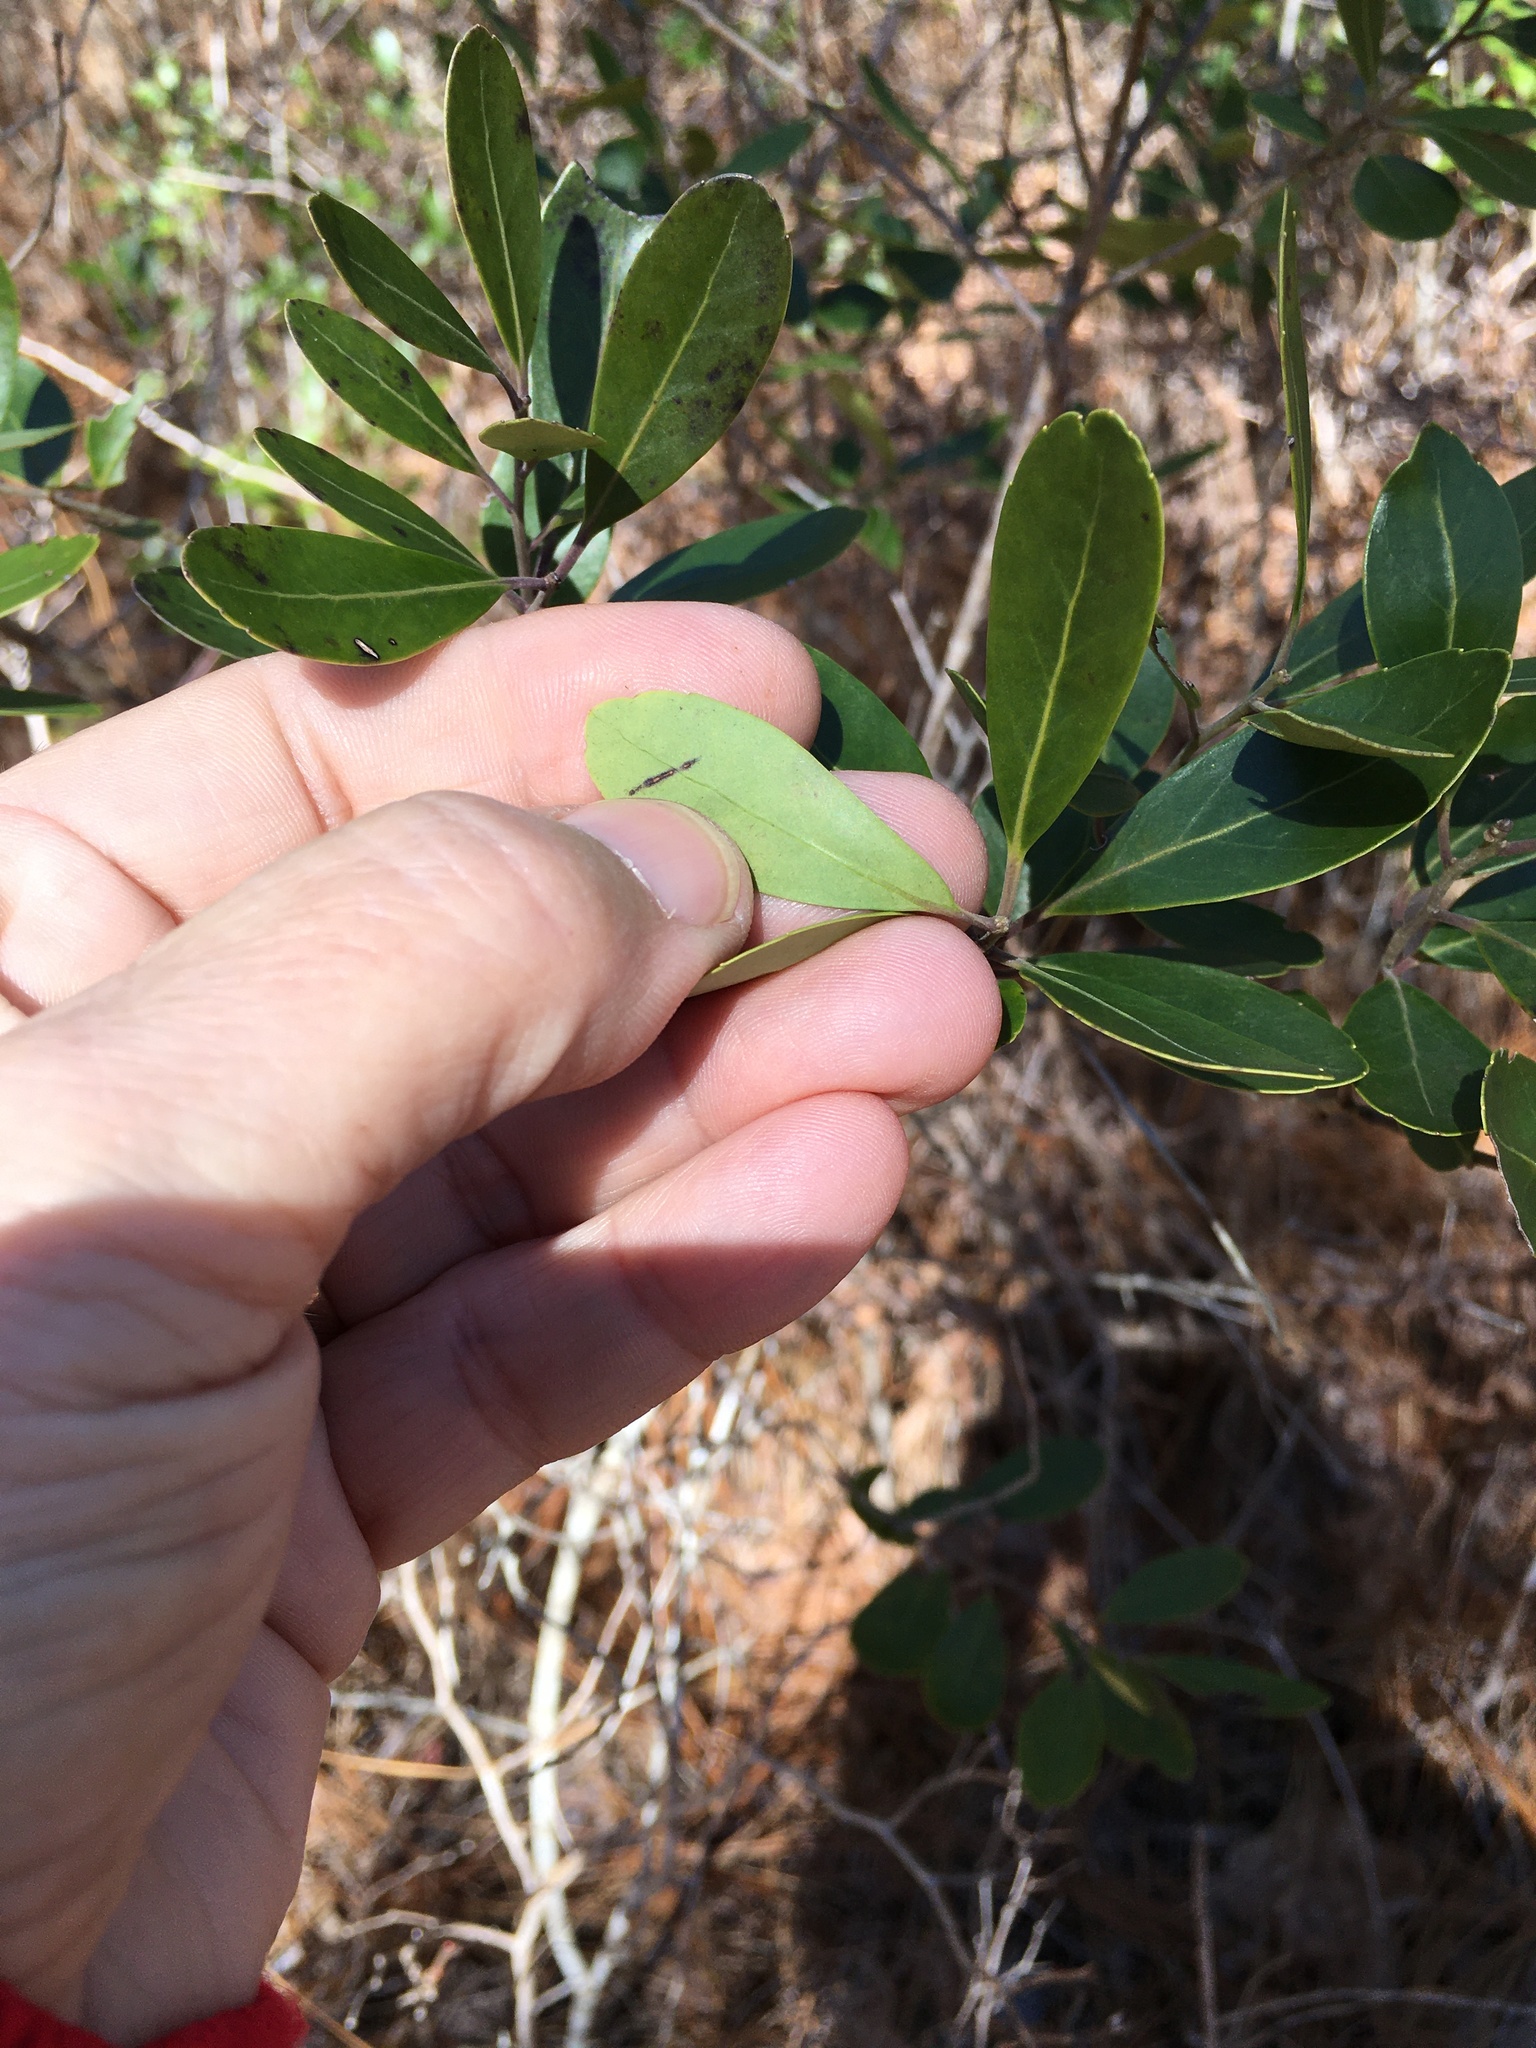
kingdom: Plantae
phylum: Tracheophyta
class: Magnoliopsida
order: Aquifoliales
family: Aquifoliaceae
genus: Ilex
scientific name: Ilex glabra
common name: Bitter gallberry
